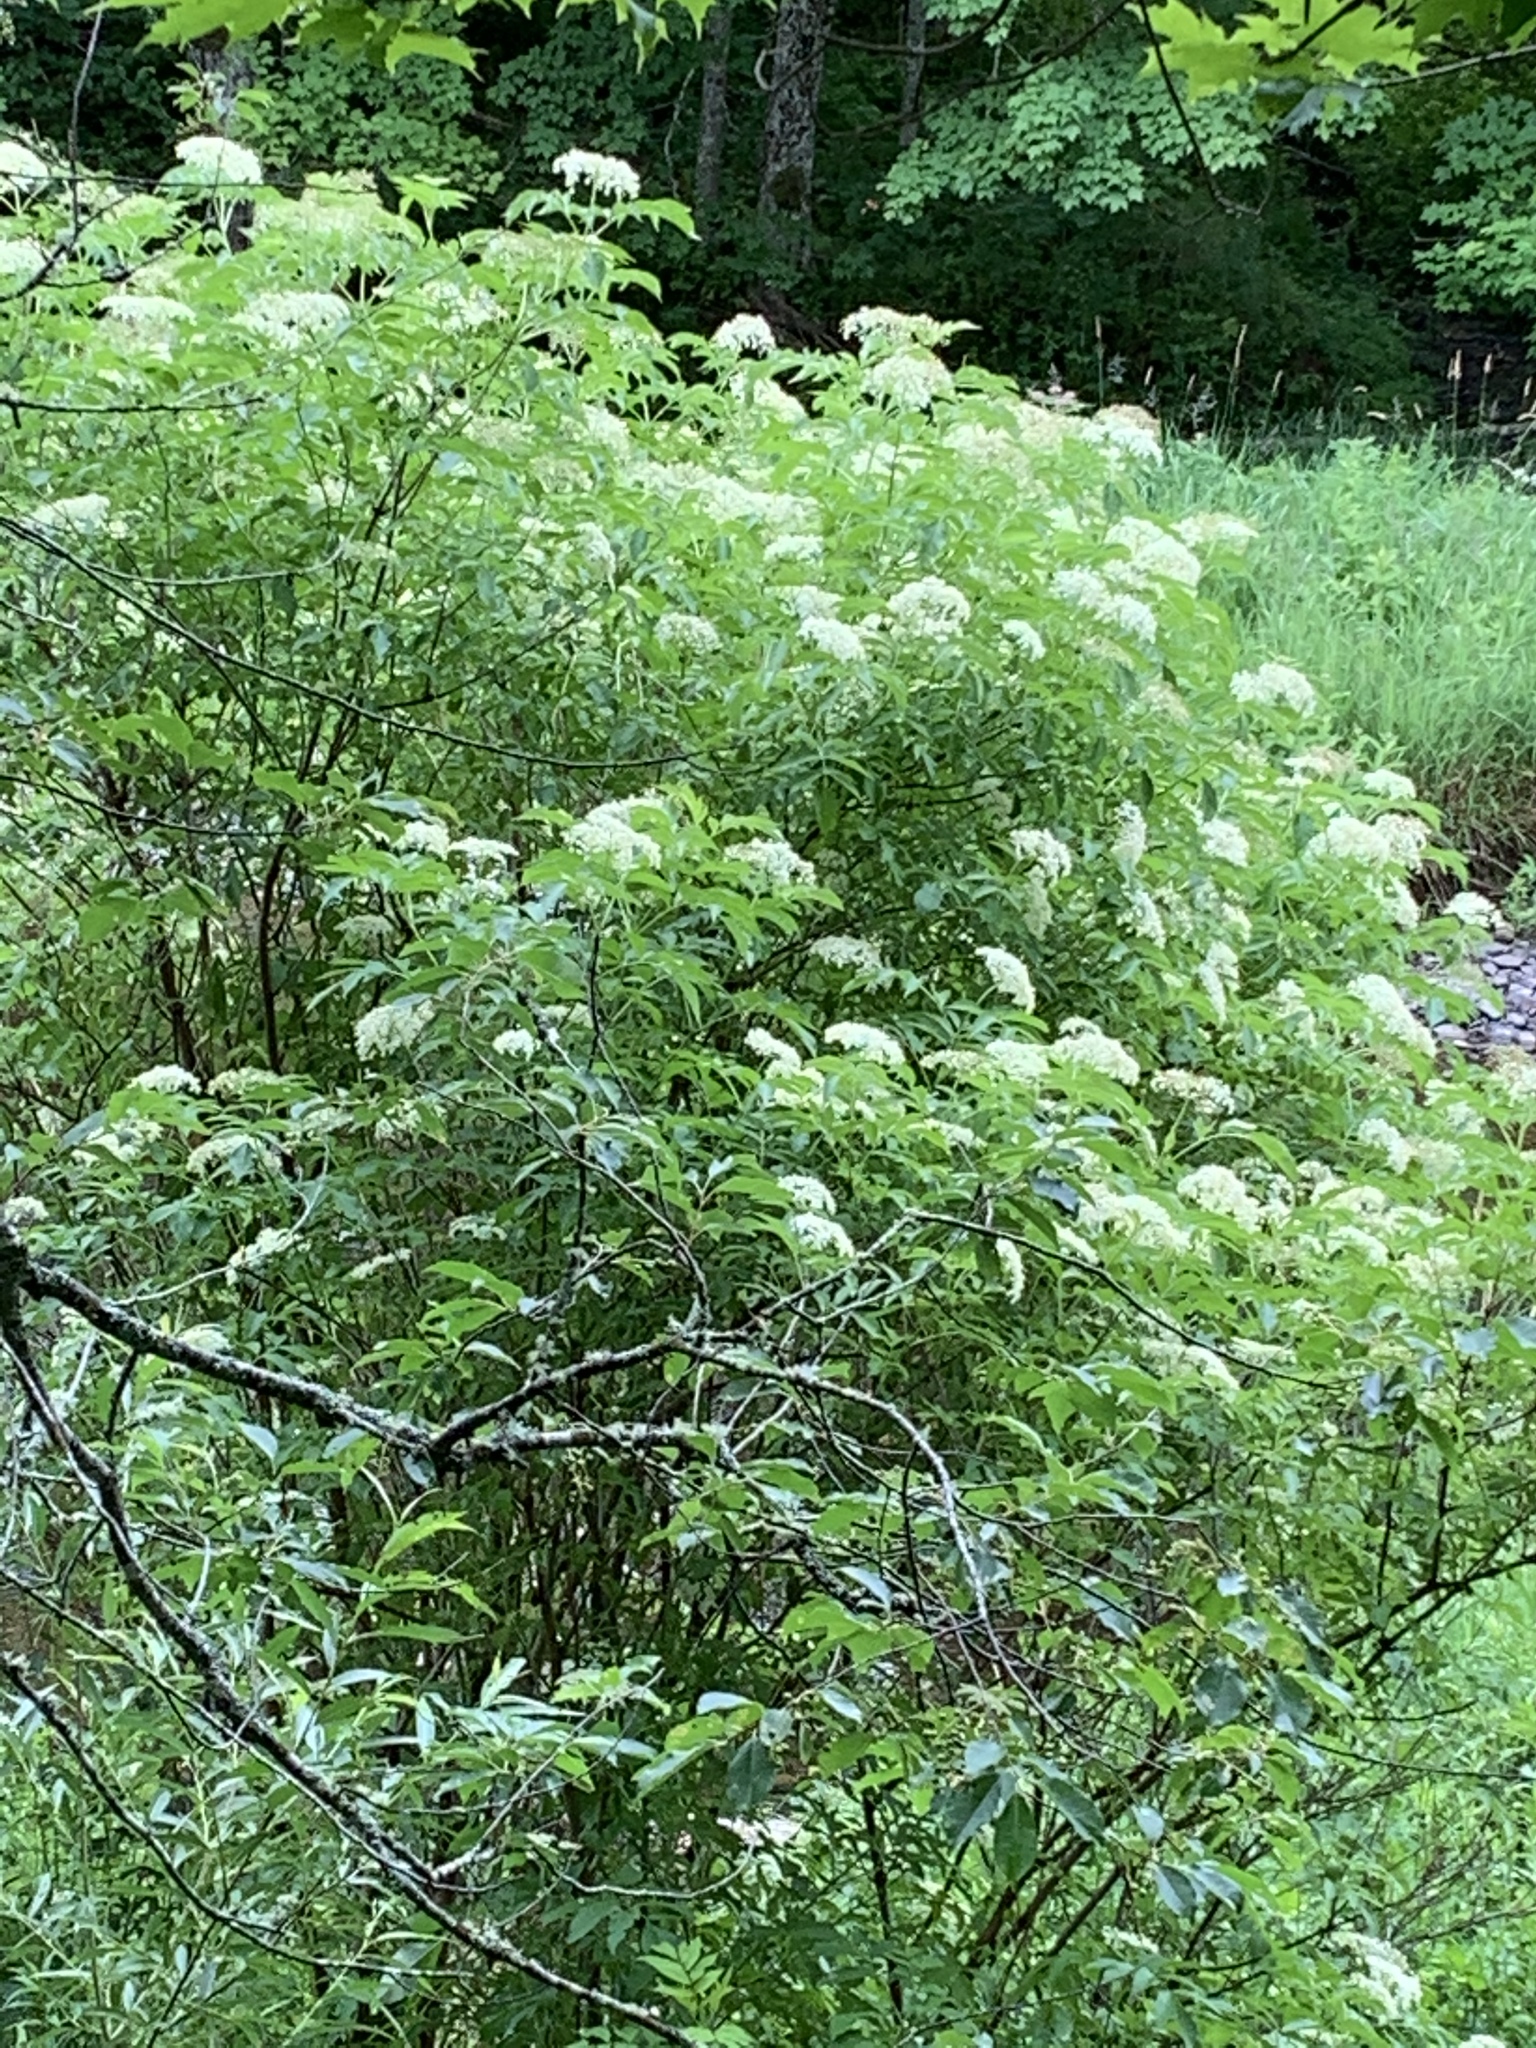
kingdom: Plantae
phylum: Tracheophyta
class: Magnoliopsida
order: Dipsacales
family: Viburnaceae
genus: Sambucus
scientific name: Sambucus canadensis
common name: American elder
